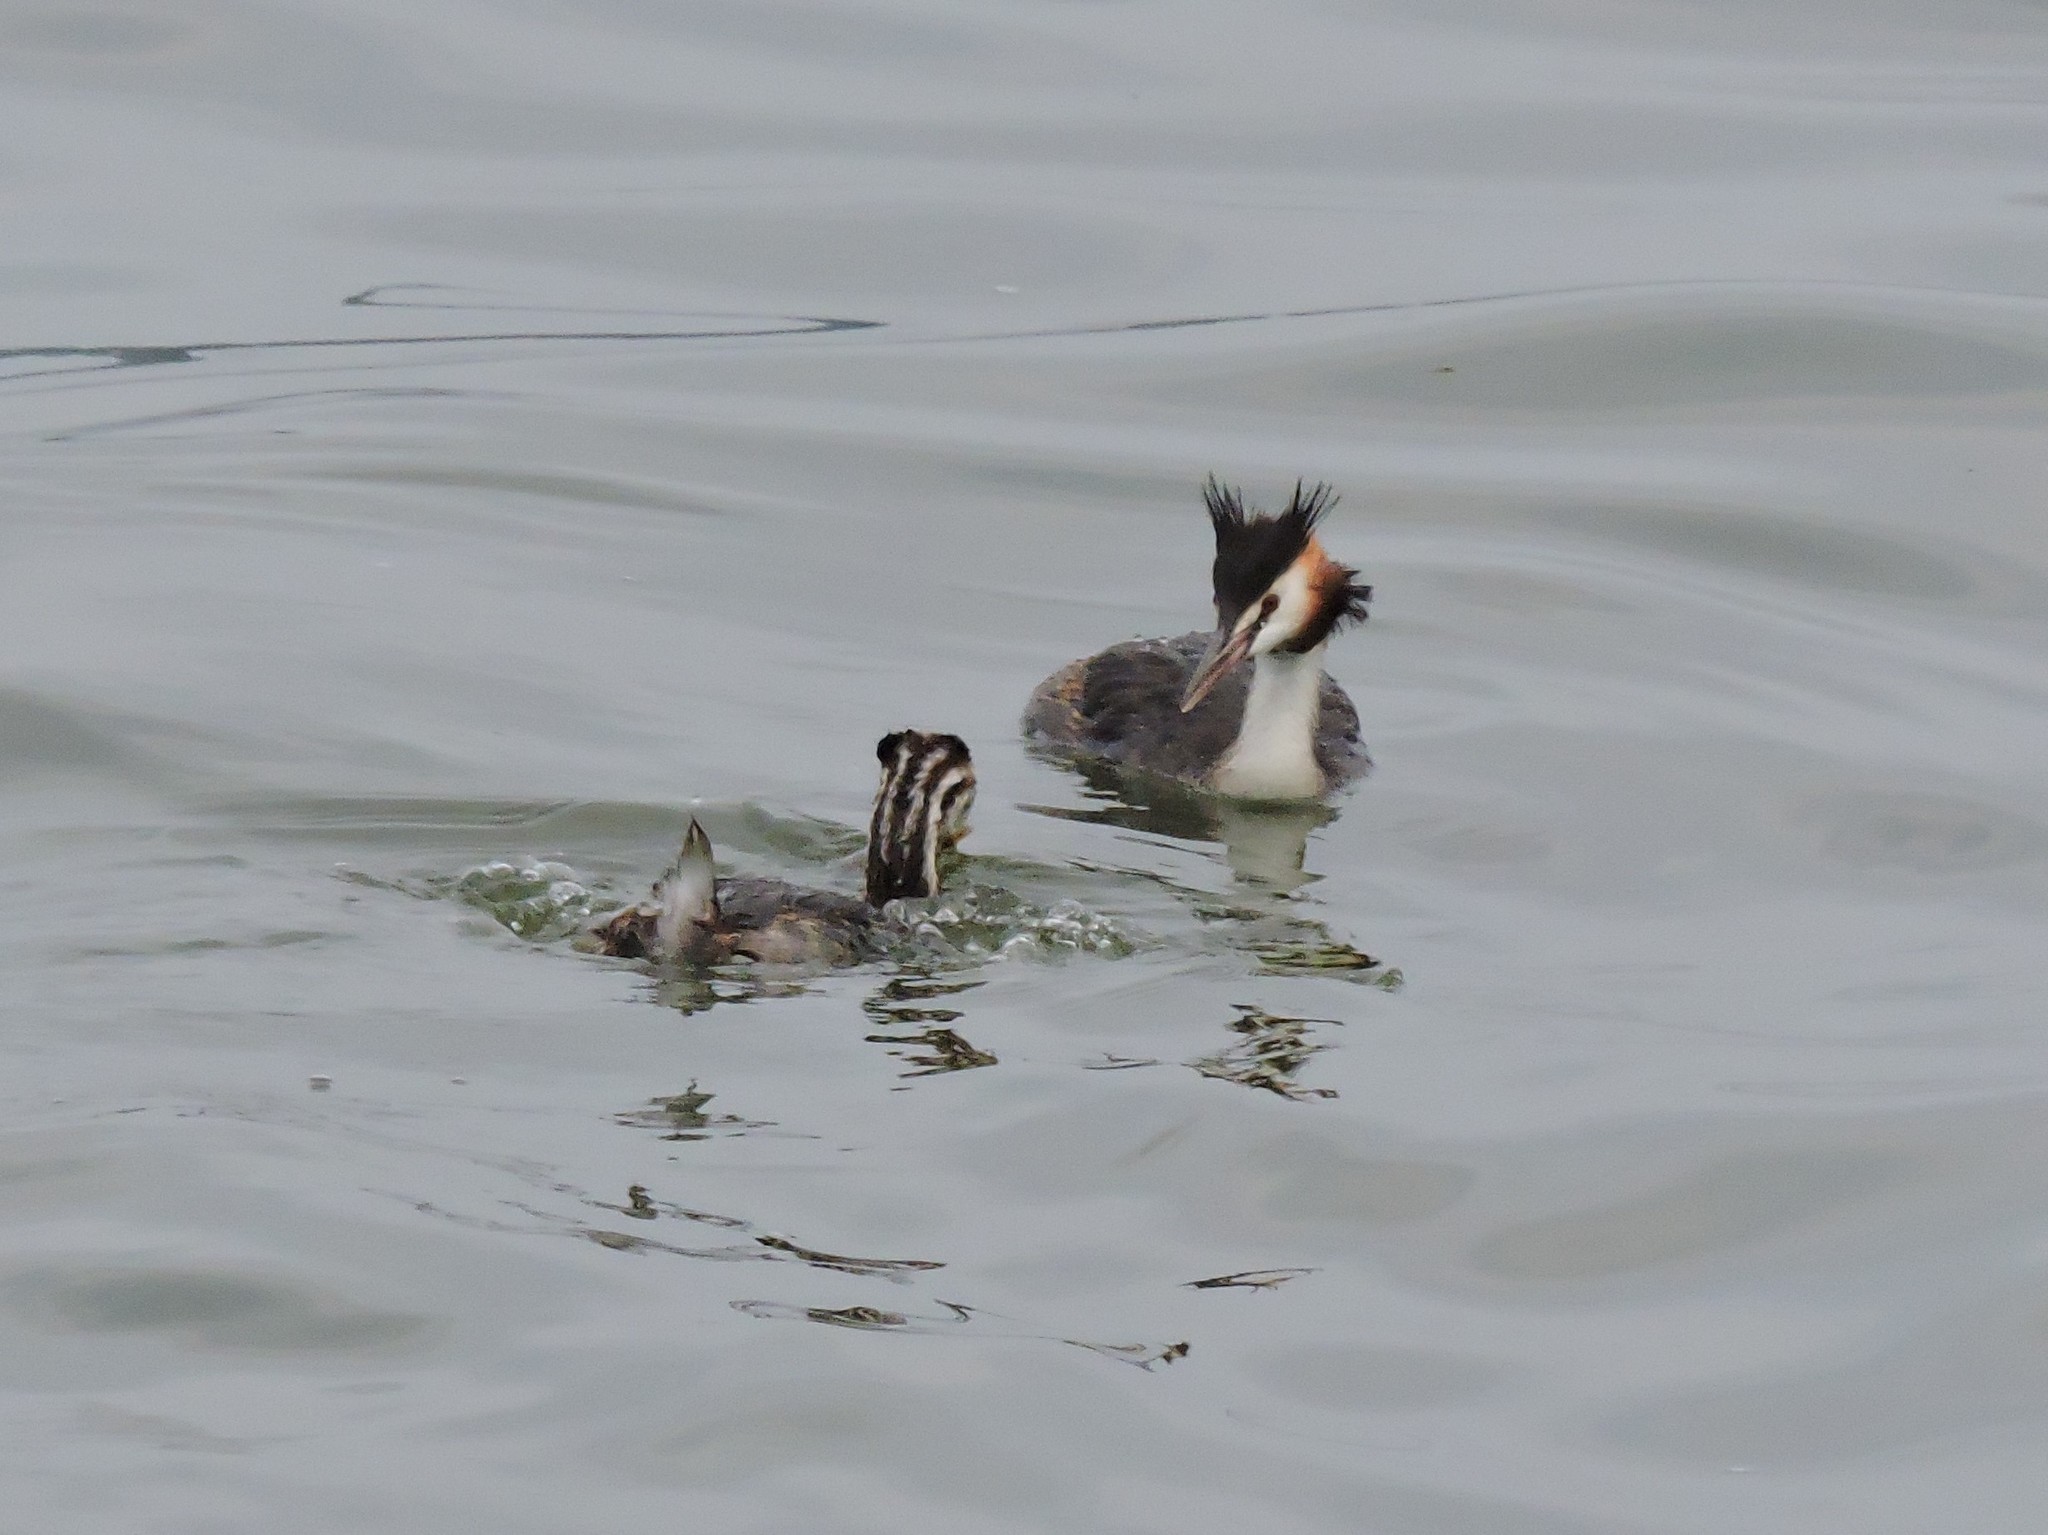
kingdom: Animalia
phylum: Chordata
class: Aves
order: Podicipediformes
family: Podicipedidae
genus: Podiceps
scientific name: Podiceps cristatus
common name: Great crested grebe
